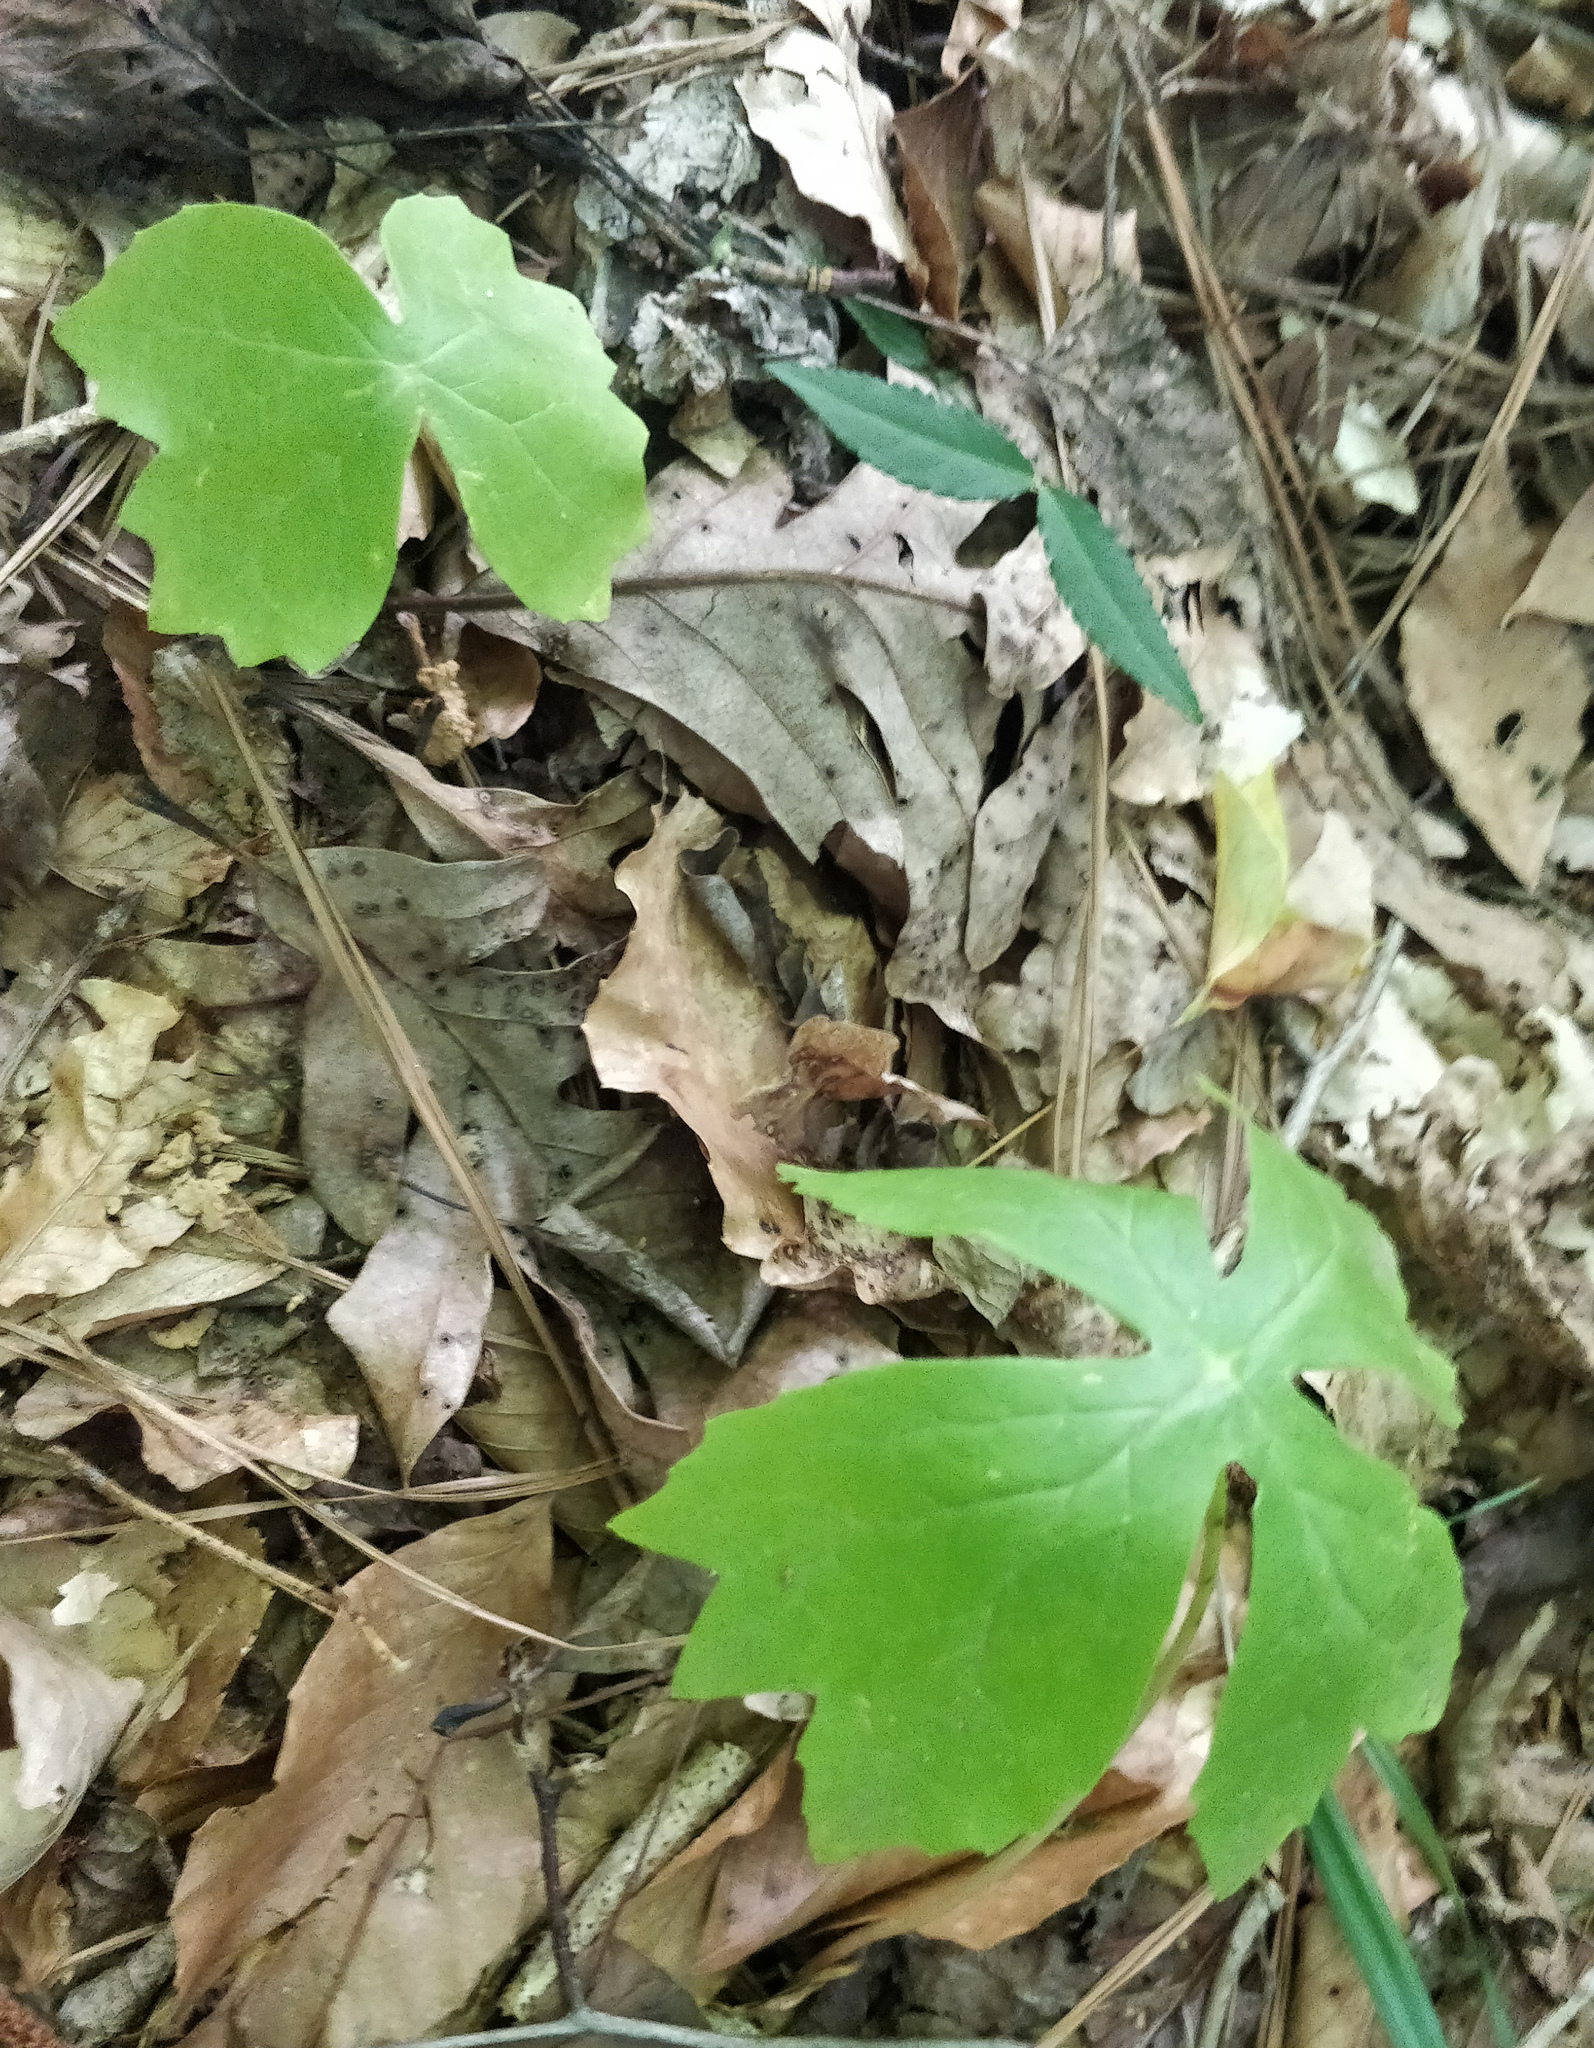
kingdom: Plantae
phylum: Tracheophyta
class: Magnoliopsida
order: Ranunculales
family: Berberidaceae
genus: Podophyllum
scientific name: Podophyllum peltatum
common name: Wild mandrake
